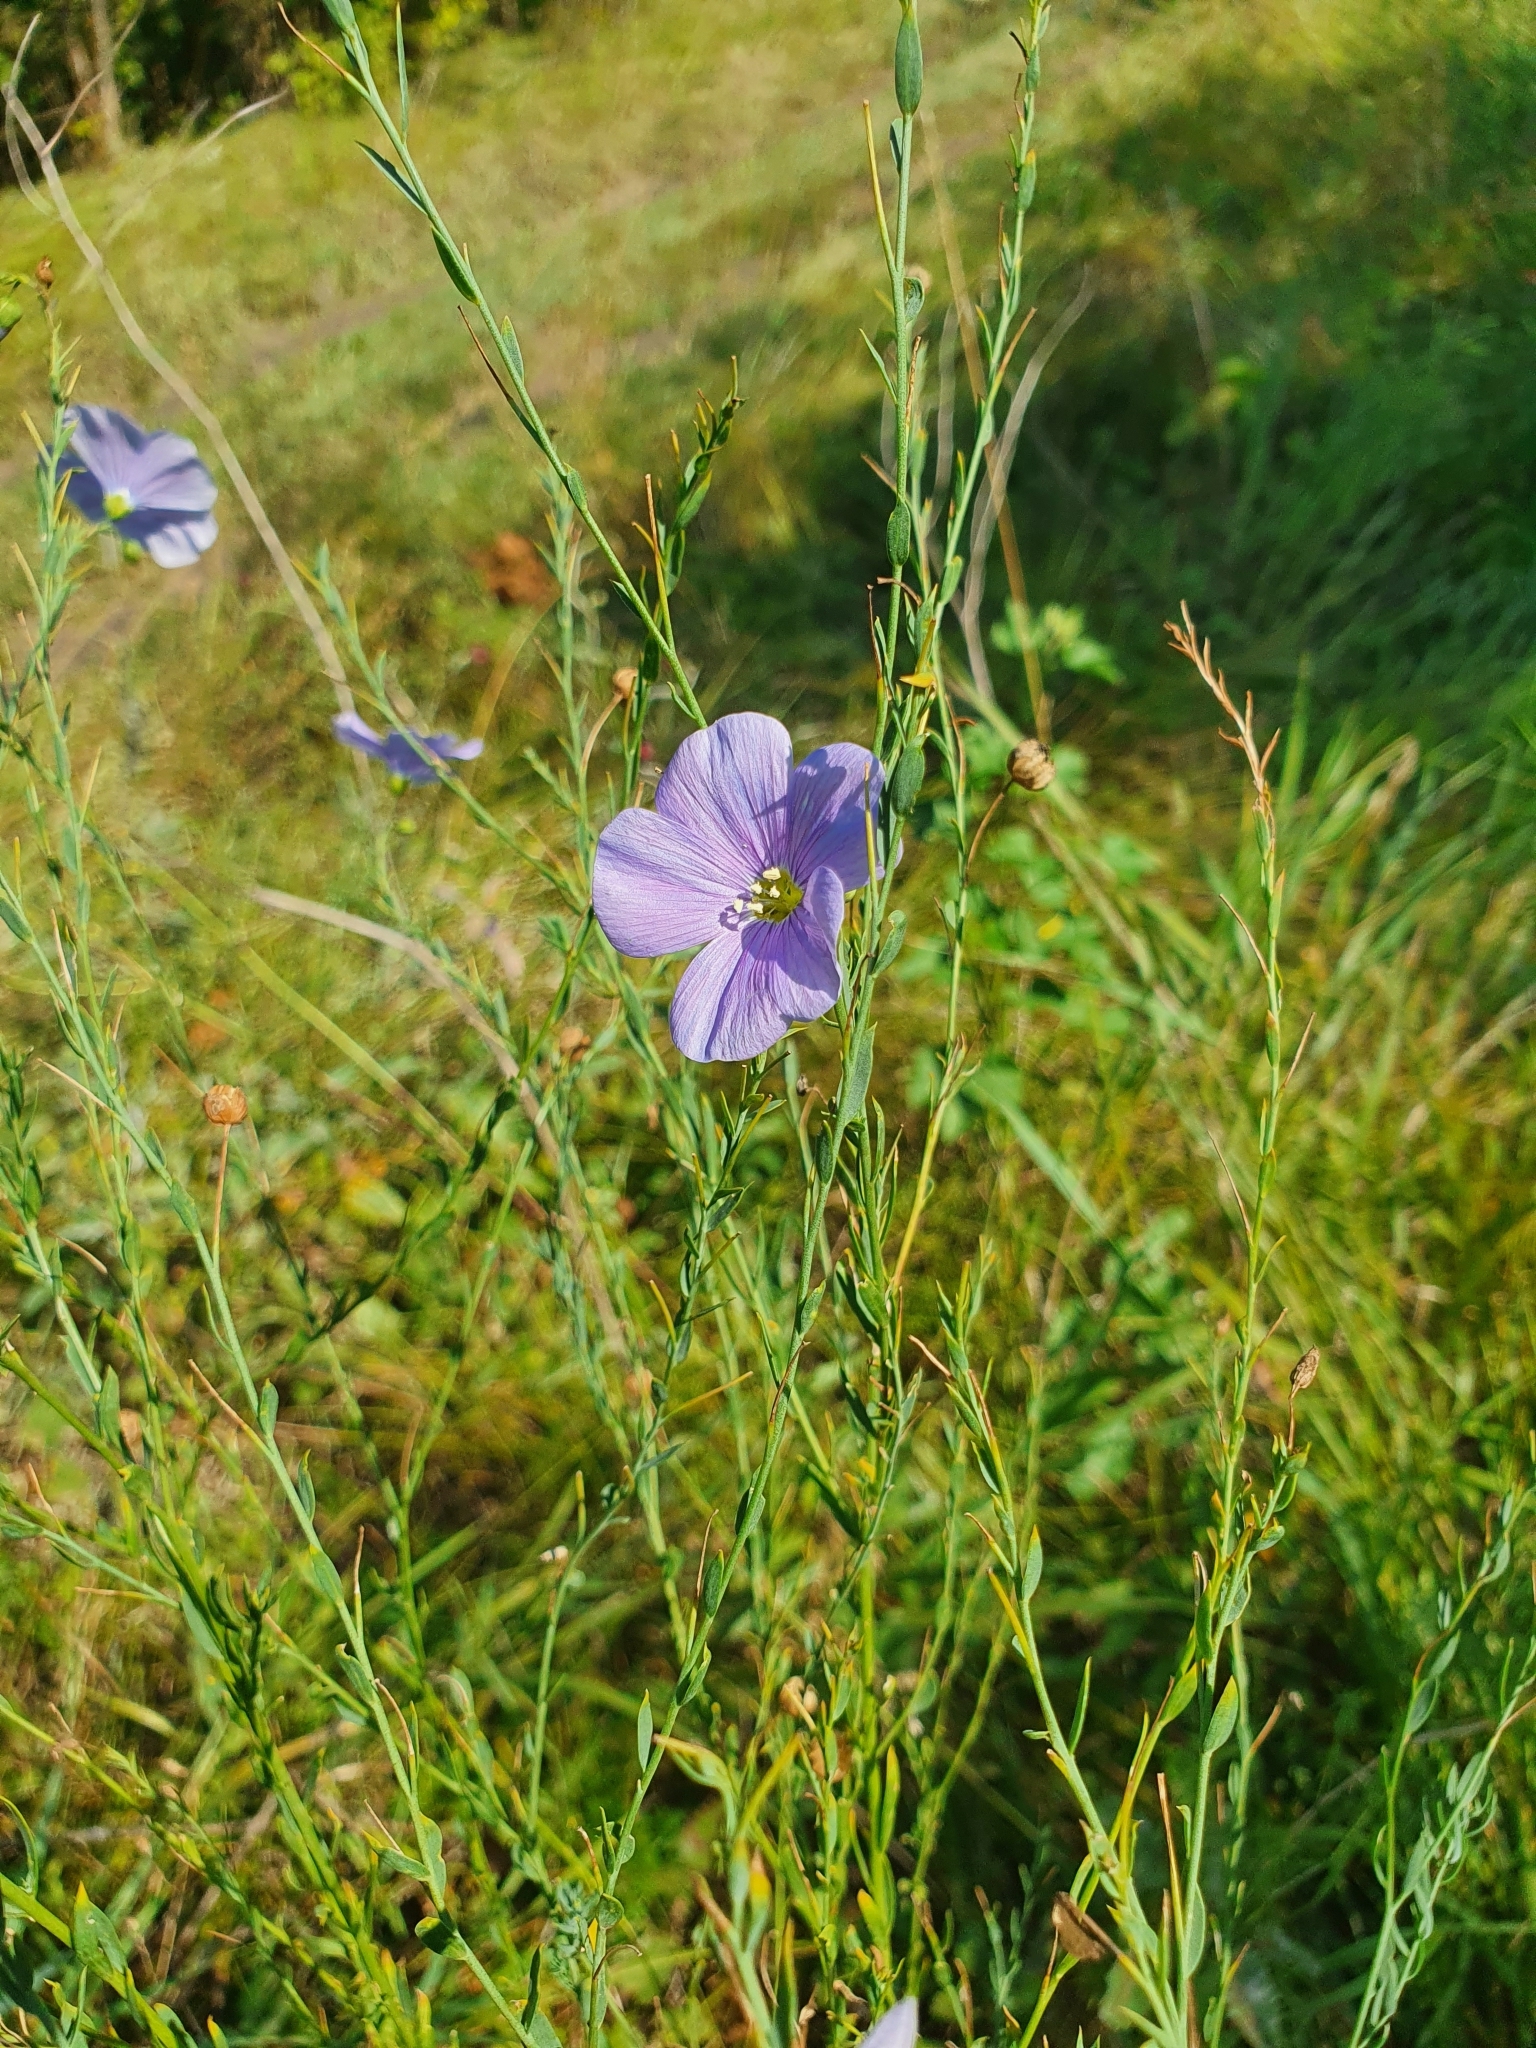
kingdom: Plantae
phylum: Tracheophyta
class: Magnoliopsida
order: Malpighiales
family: Linaceae
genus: Linum
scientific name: Linum perenne
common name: Blue flax
